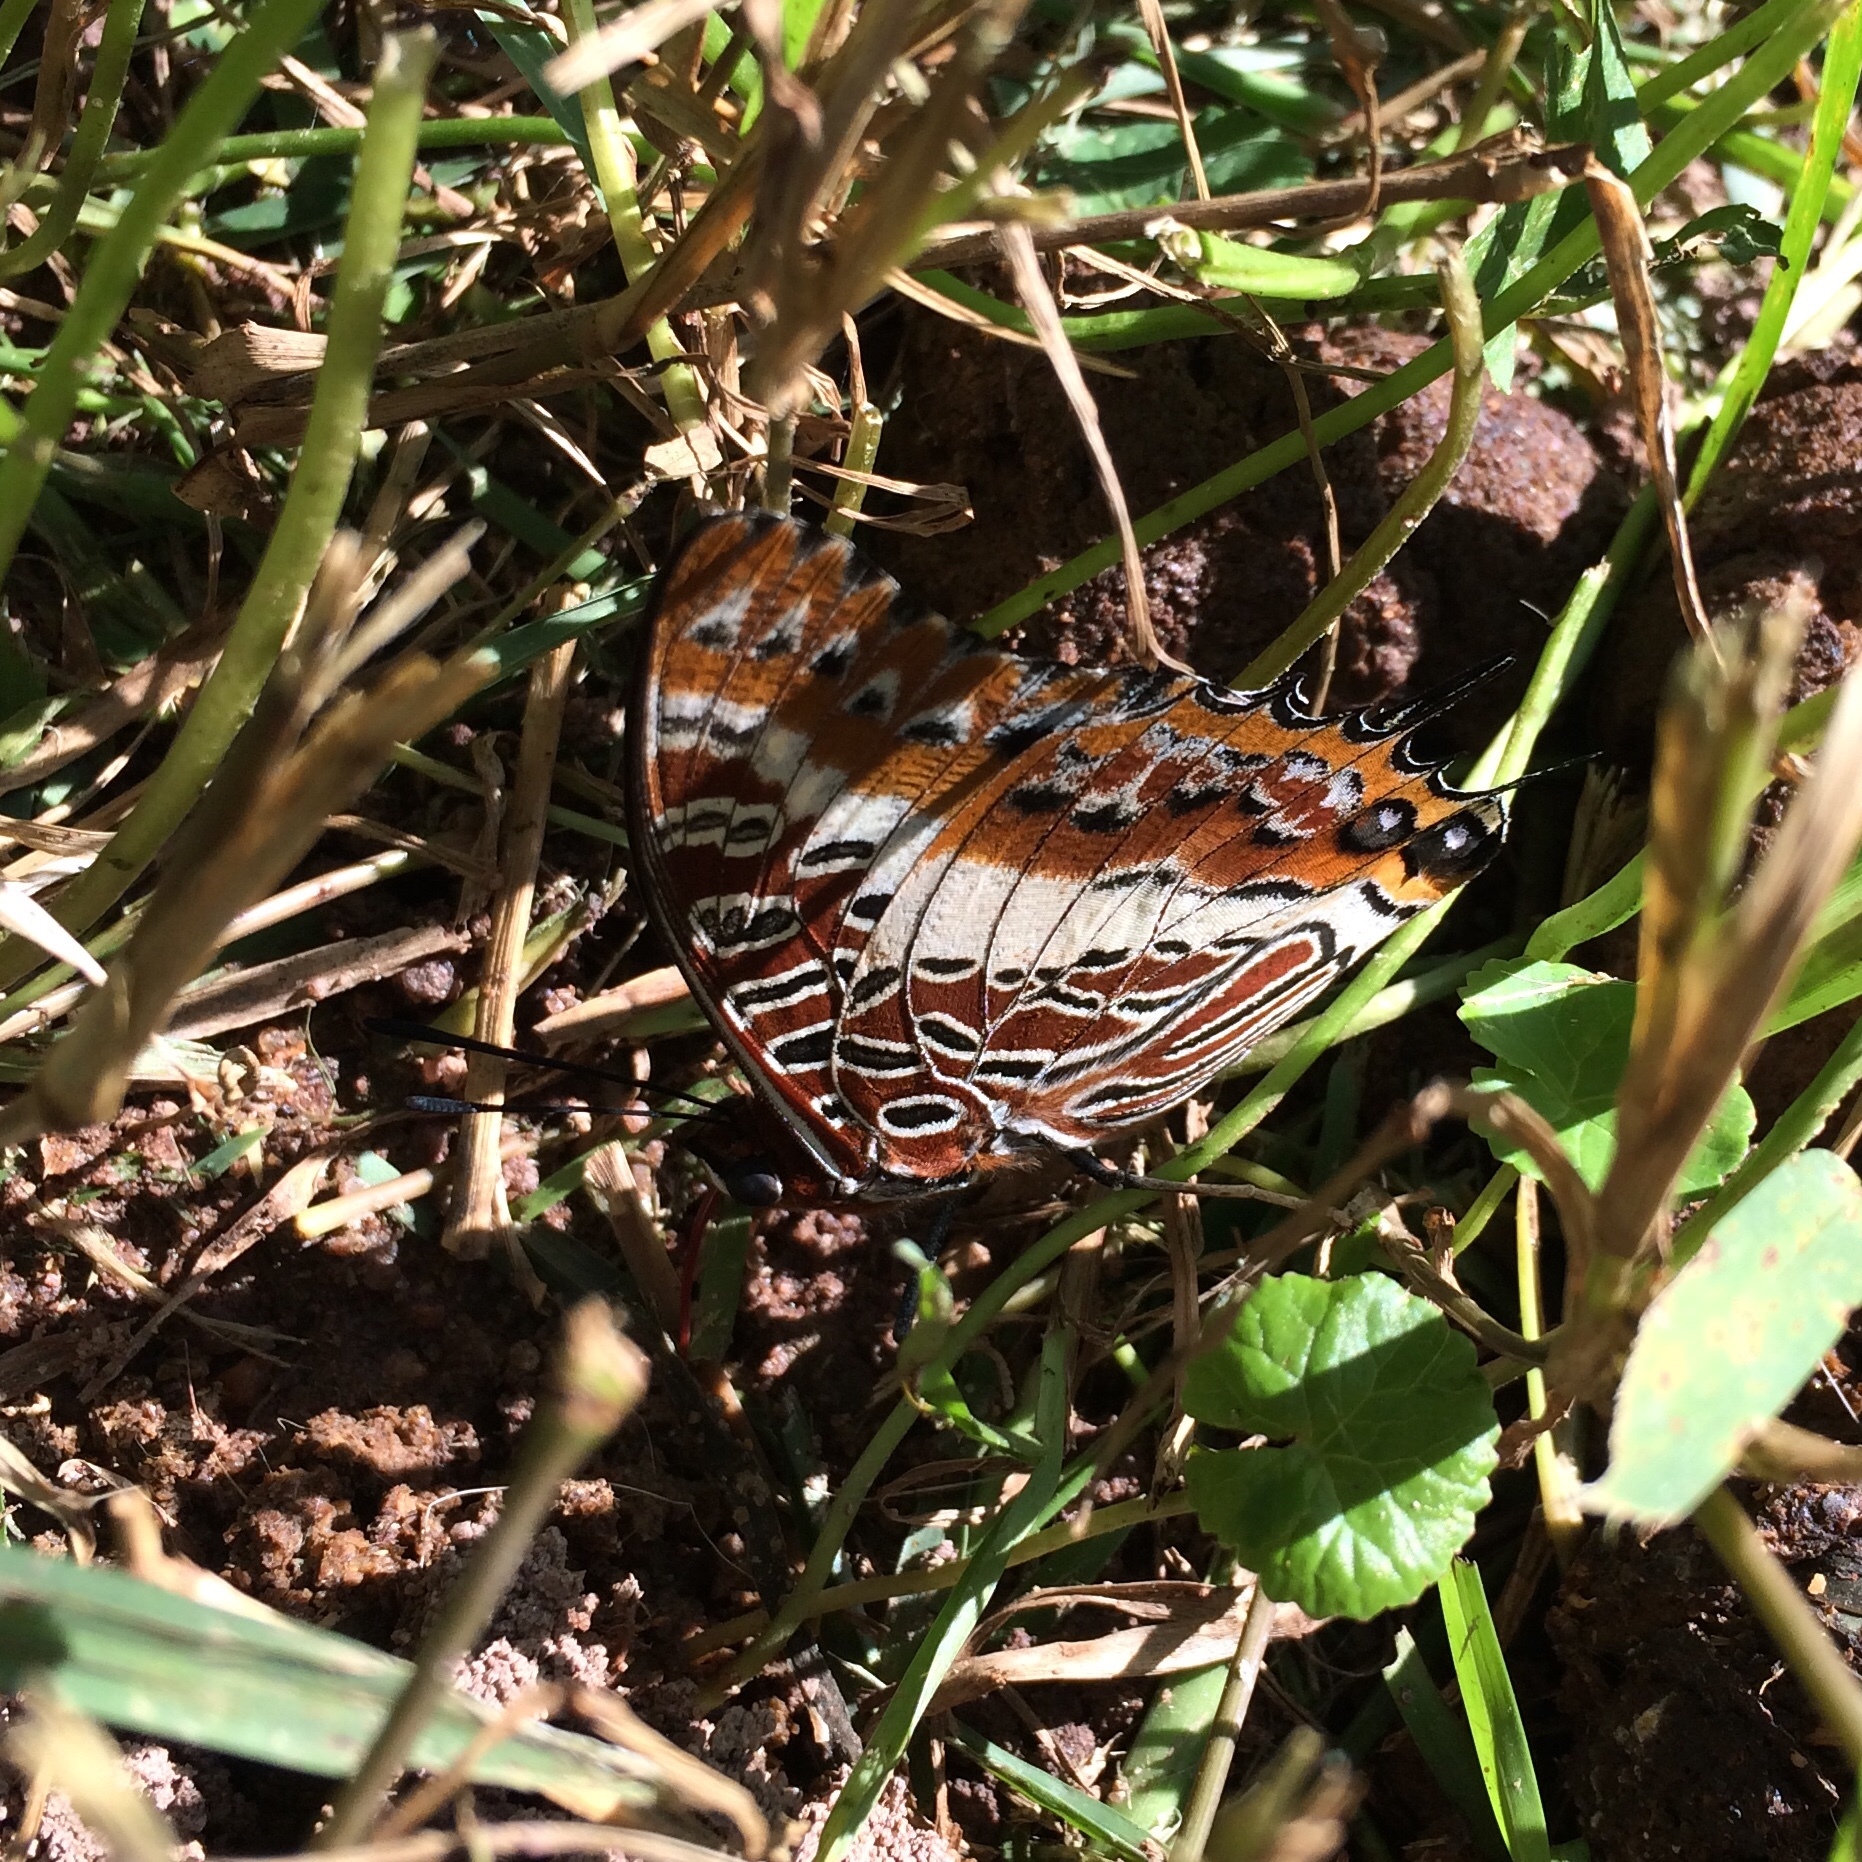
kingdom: Animalia
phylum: Arthropoda
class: Insecta
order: Lepidoptera
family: Nymphalidae
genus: Charaxes
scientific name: Charaxes brutus
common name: White-barred charaxes
